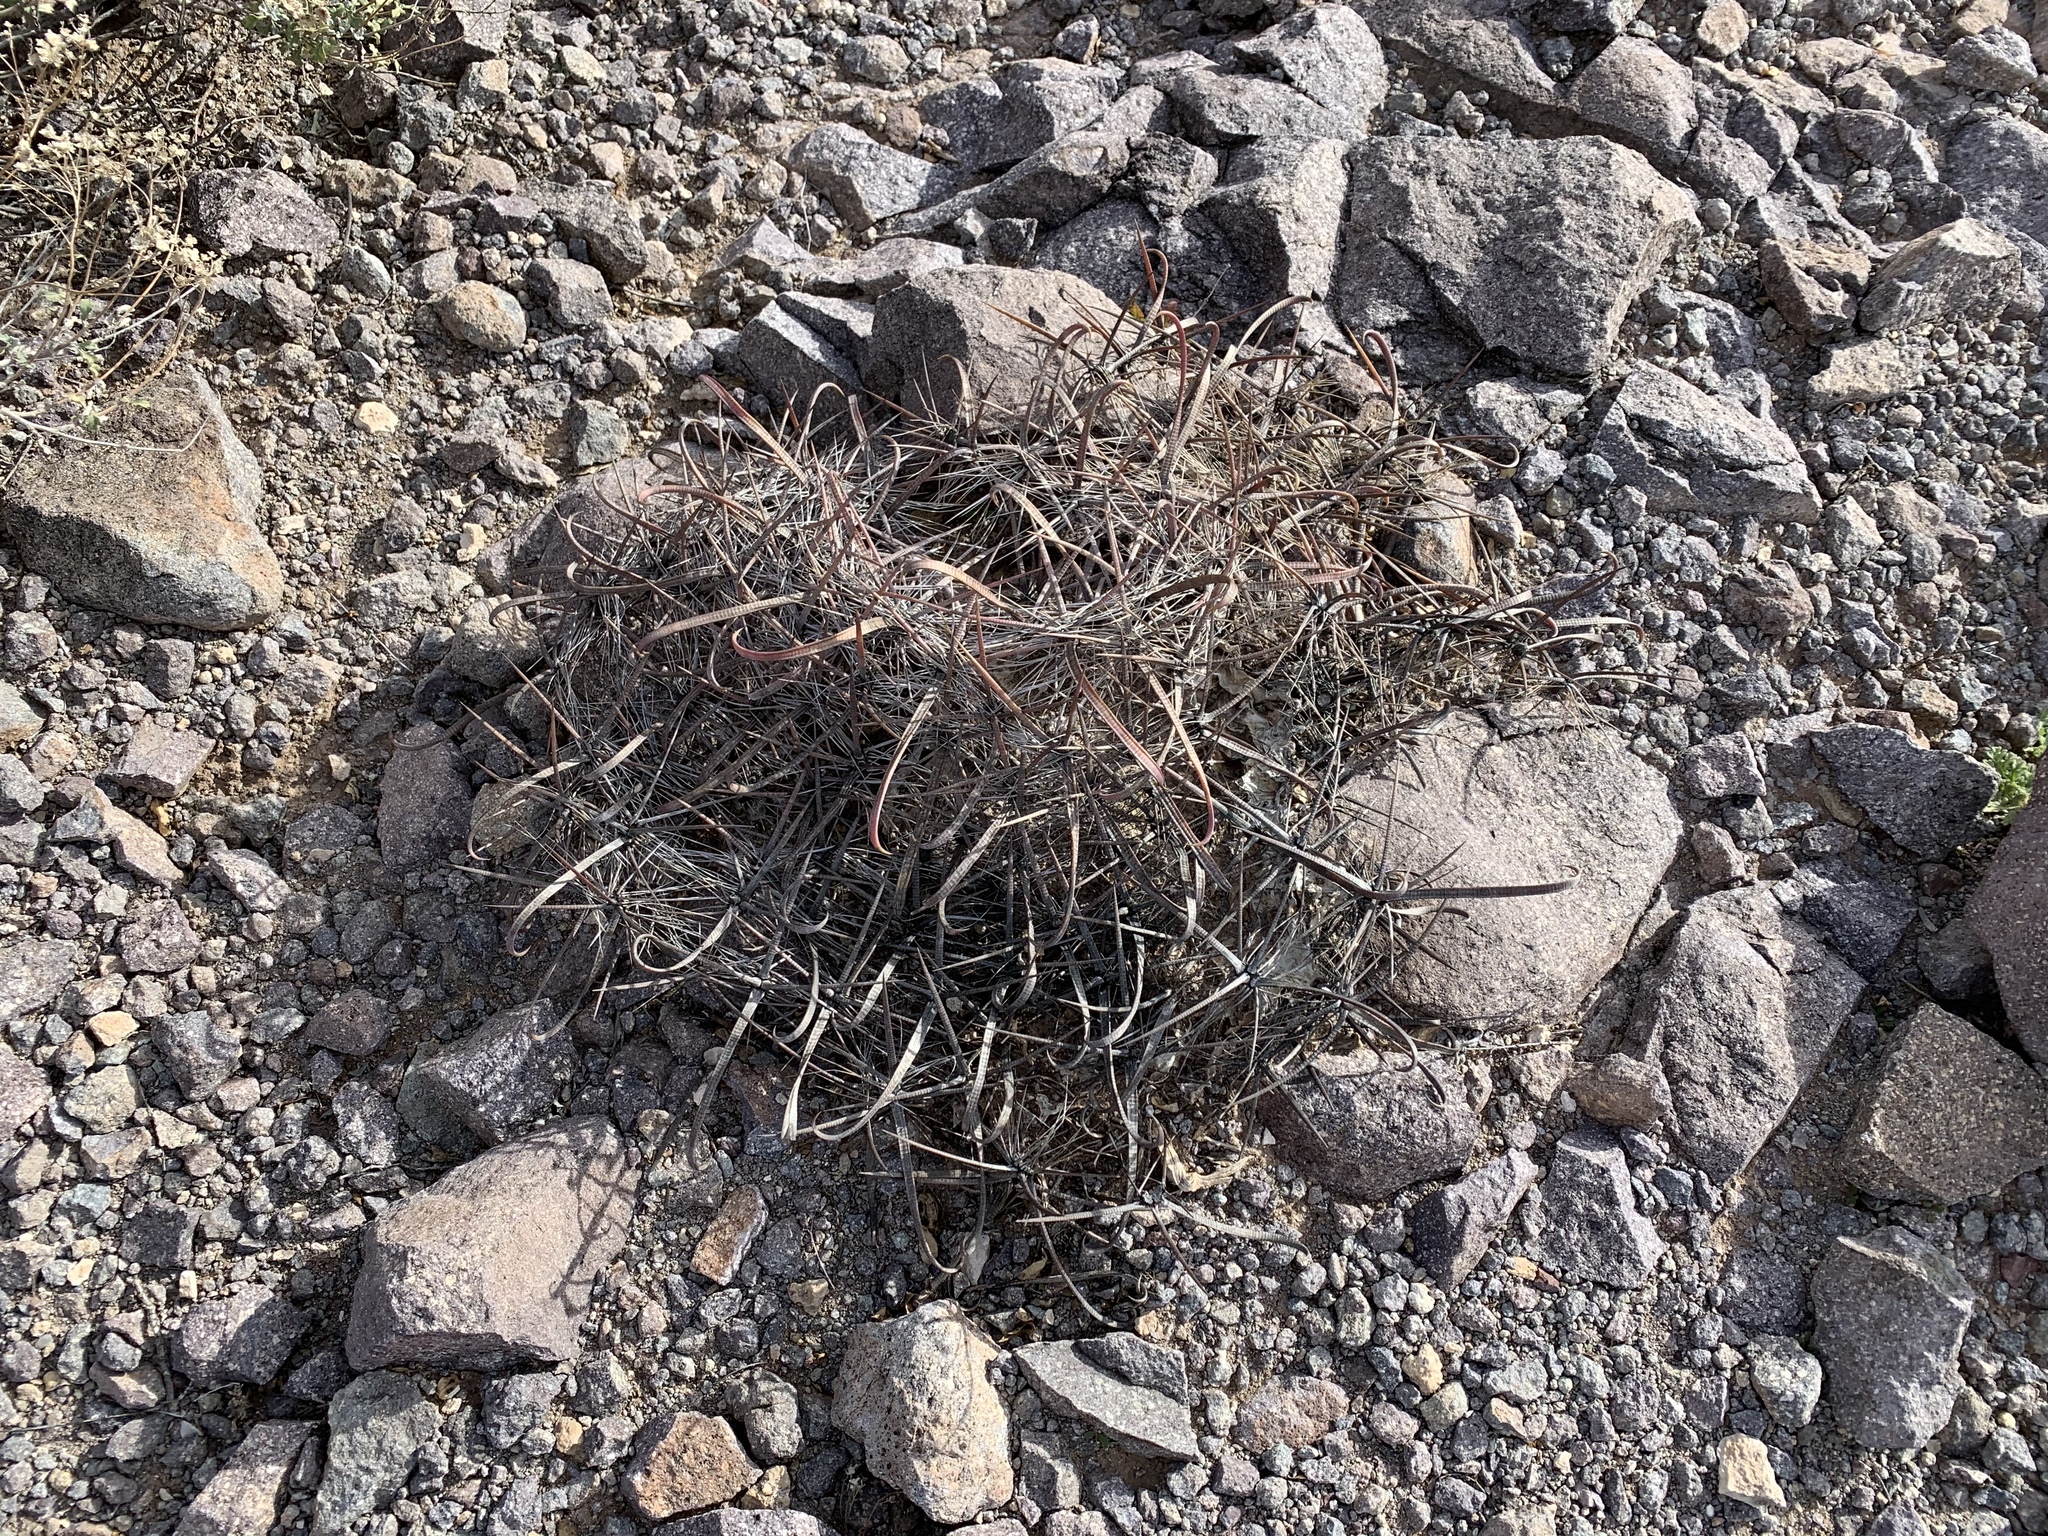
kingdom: Plantae
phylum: Tracheophyta
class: Magnoliopsida
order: Caryophyllales
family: Cactaceae
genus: Ferocactus
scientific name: Ferocactus wislizeni
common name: Candy barrel cactus
